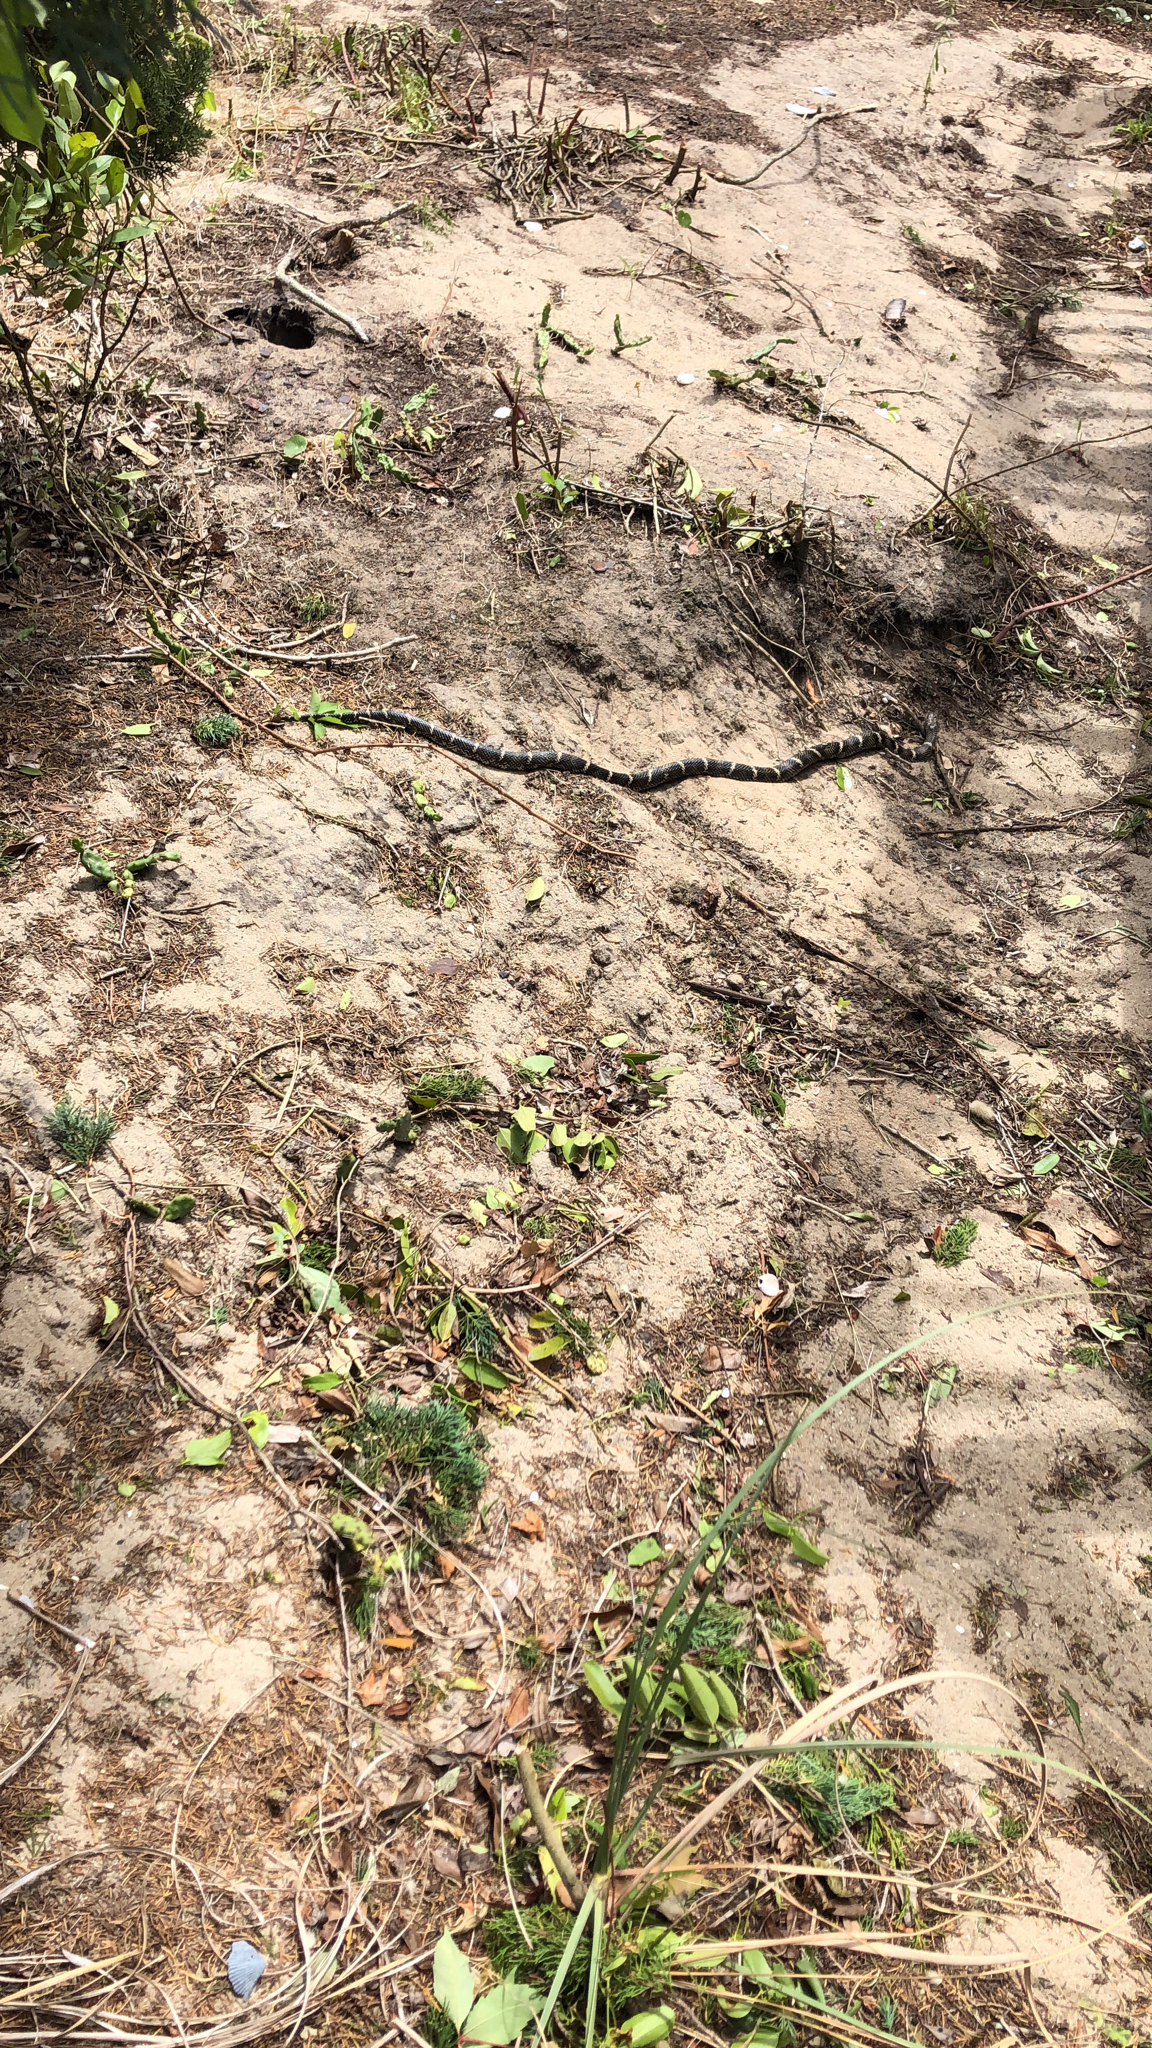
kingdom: Animalia
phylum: Chordata
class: Squamata
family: Colubridae
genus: Lampropeltis
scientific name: Lampropeltis getula
